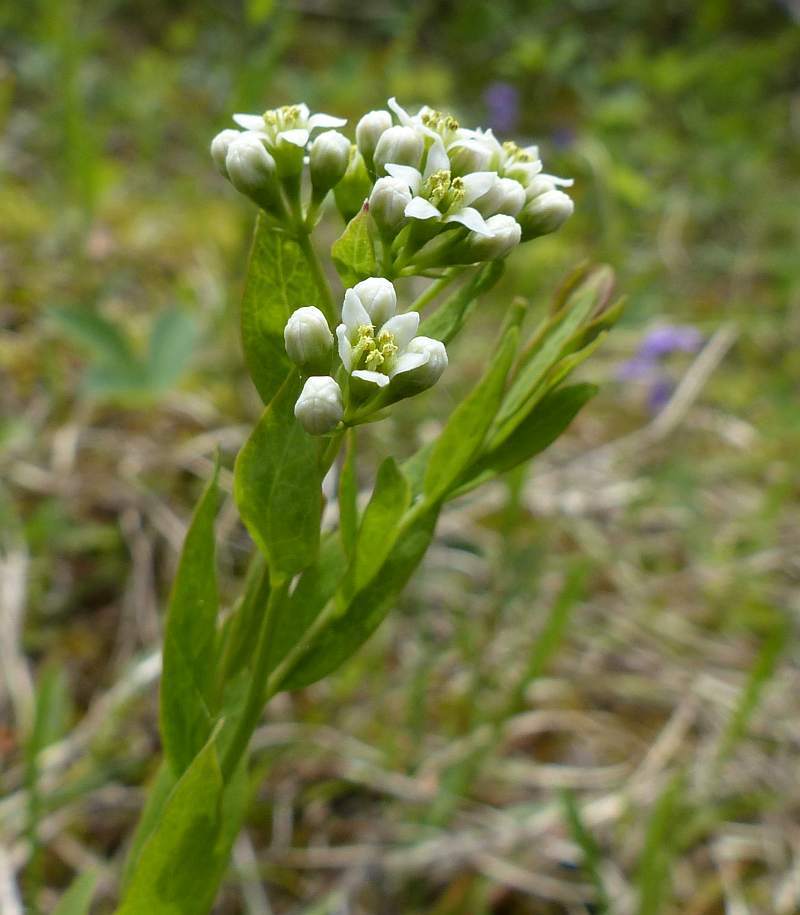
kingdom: Plantae
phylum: Tracheophyta
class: Magnoliopsida
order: Santalales
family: Comandraceae
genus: Comandra
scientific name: Comandra umbellata
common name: Bastard toadflax
